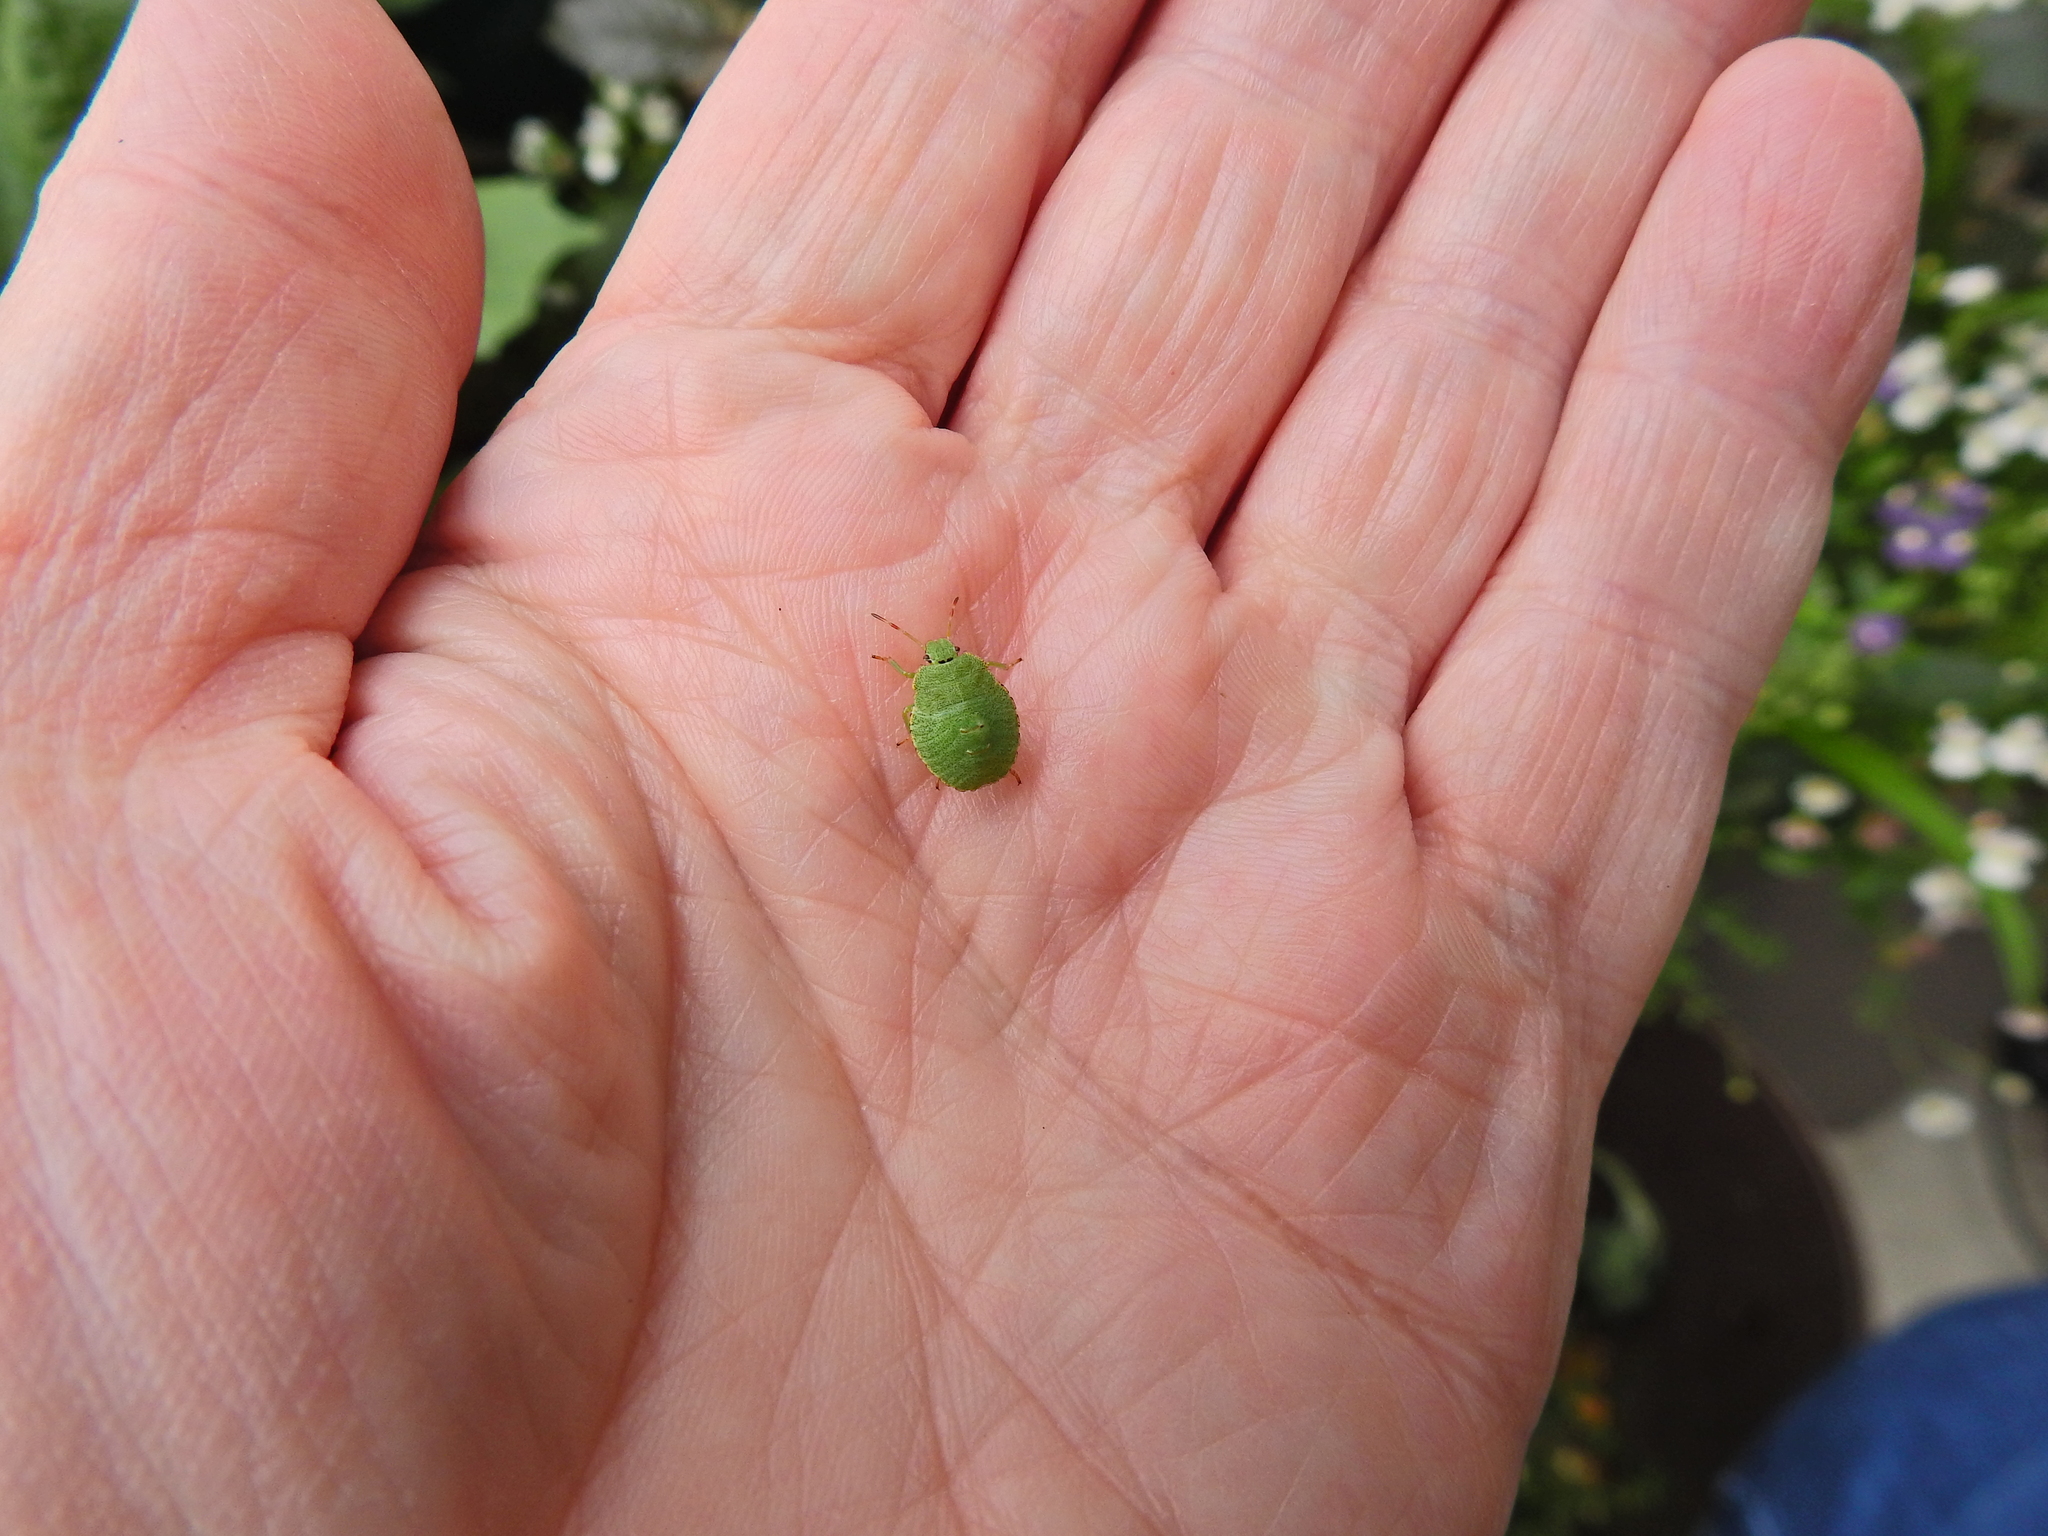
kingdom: Animalia
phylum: Arthropoda
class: Insecta
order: Hemiptera
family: Pentatomidae
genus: Palomena
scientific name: Palomena prasina
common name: Green shieldbug
